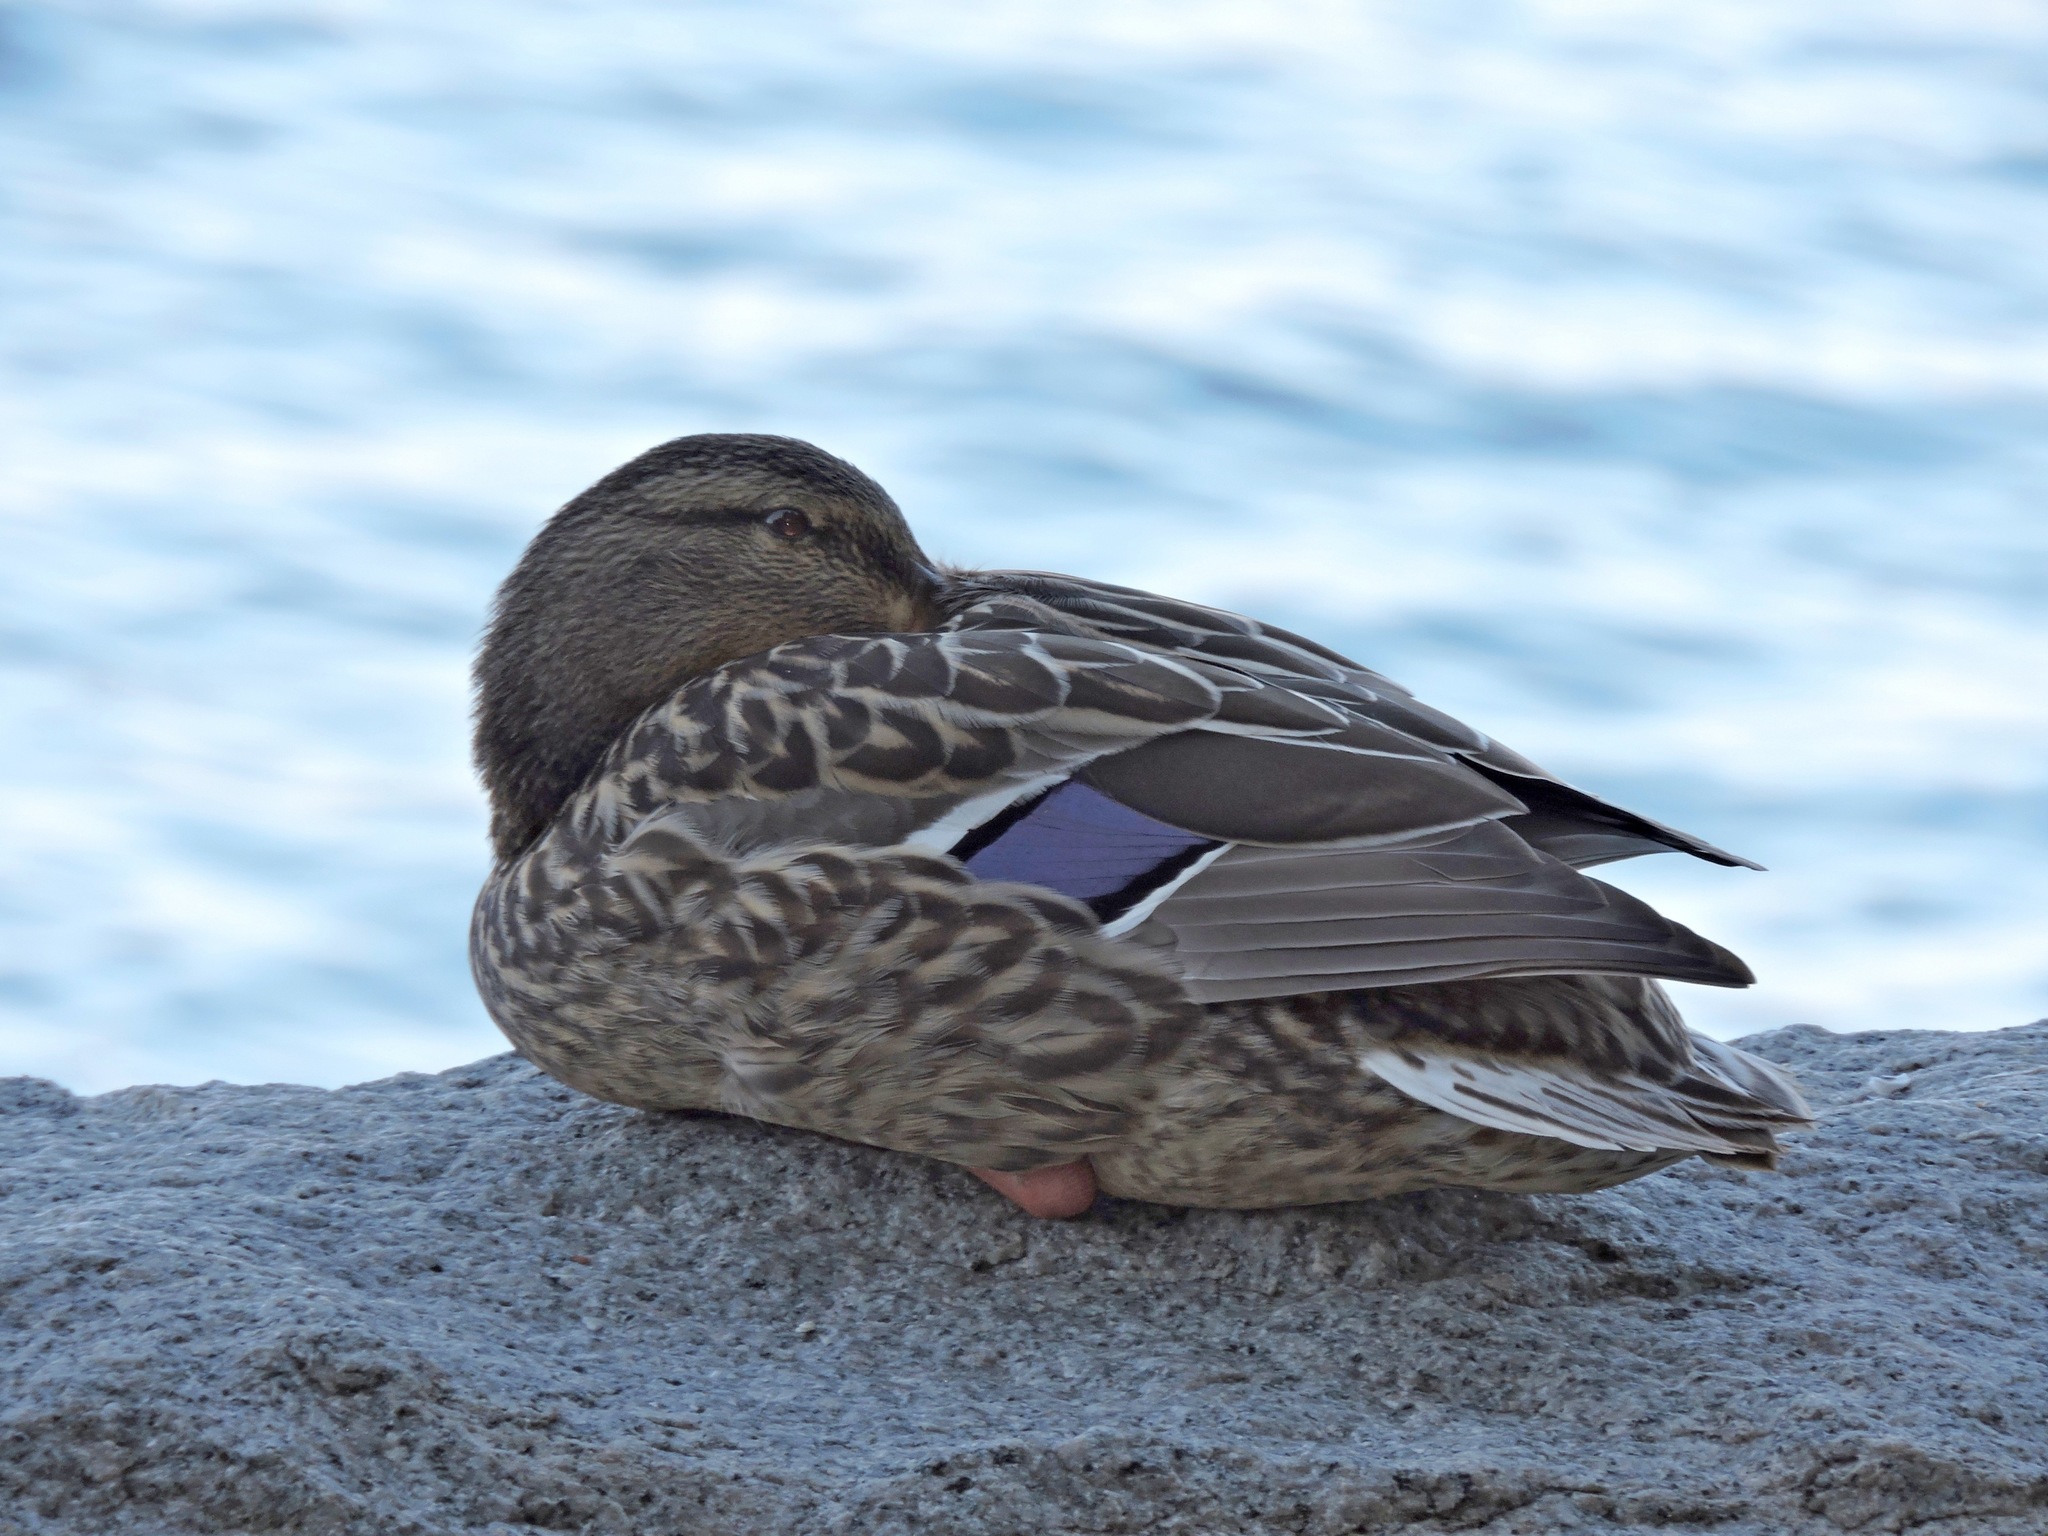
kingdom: Animalia
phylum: Chordata
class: Aves
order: Anseriformes
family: Anatidae
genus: Anas
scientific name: Anas platyrhynchos
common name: Mallard
